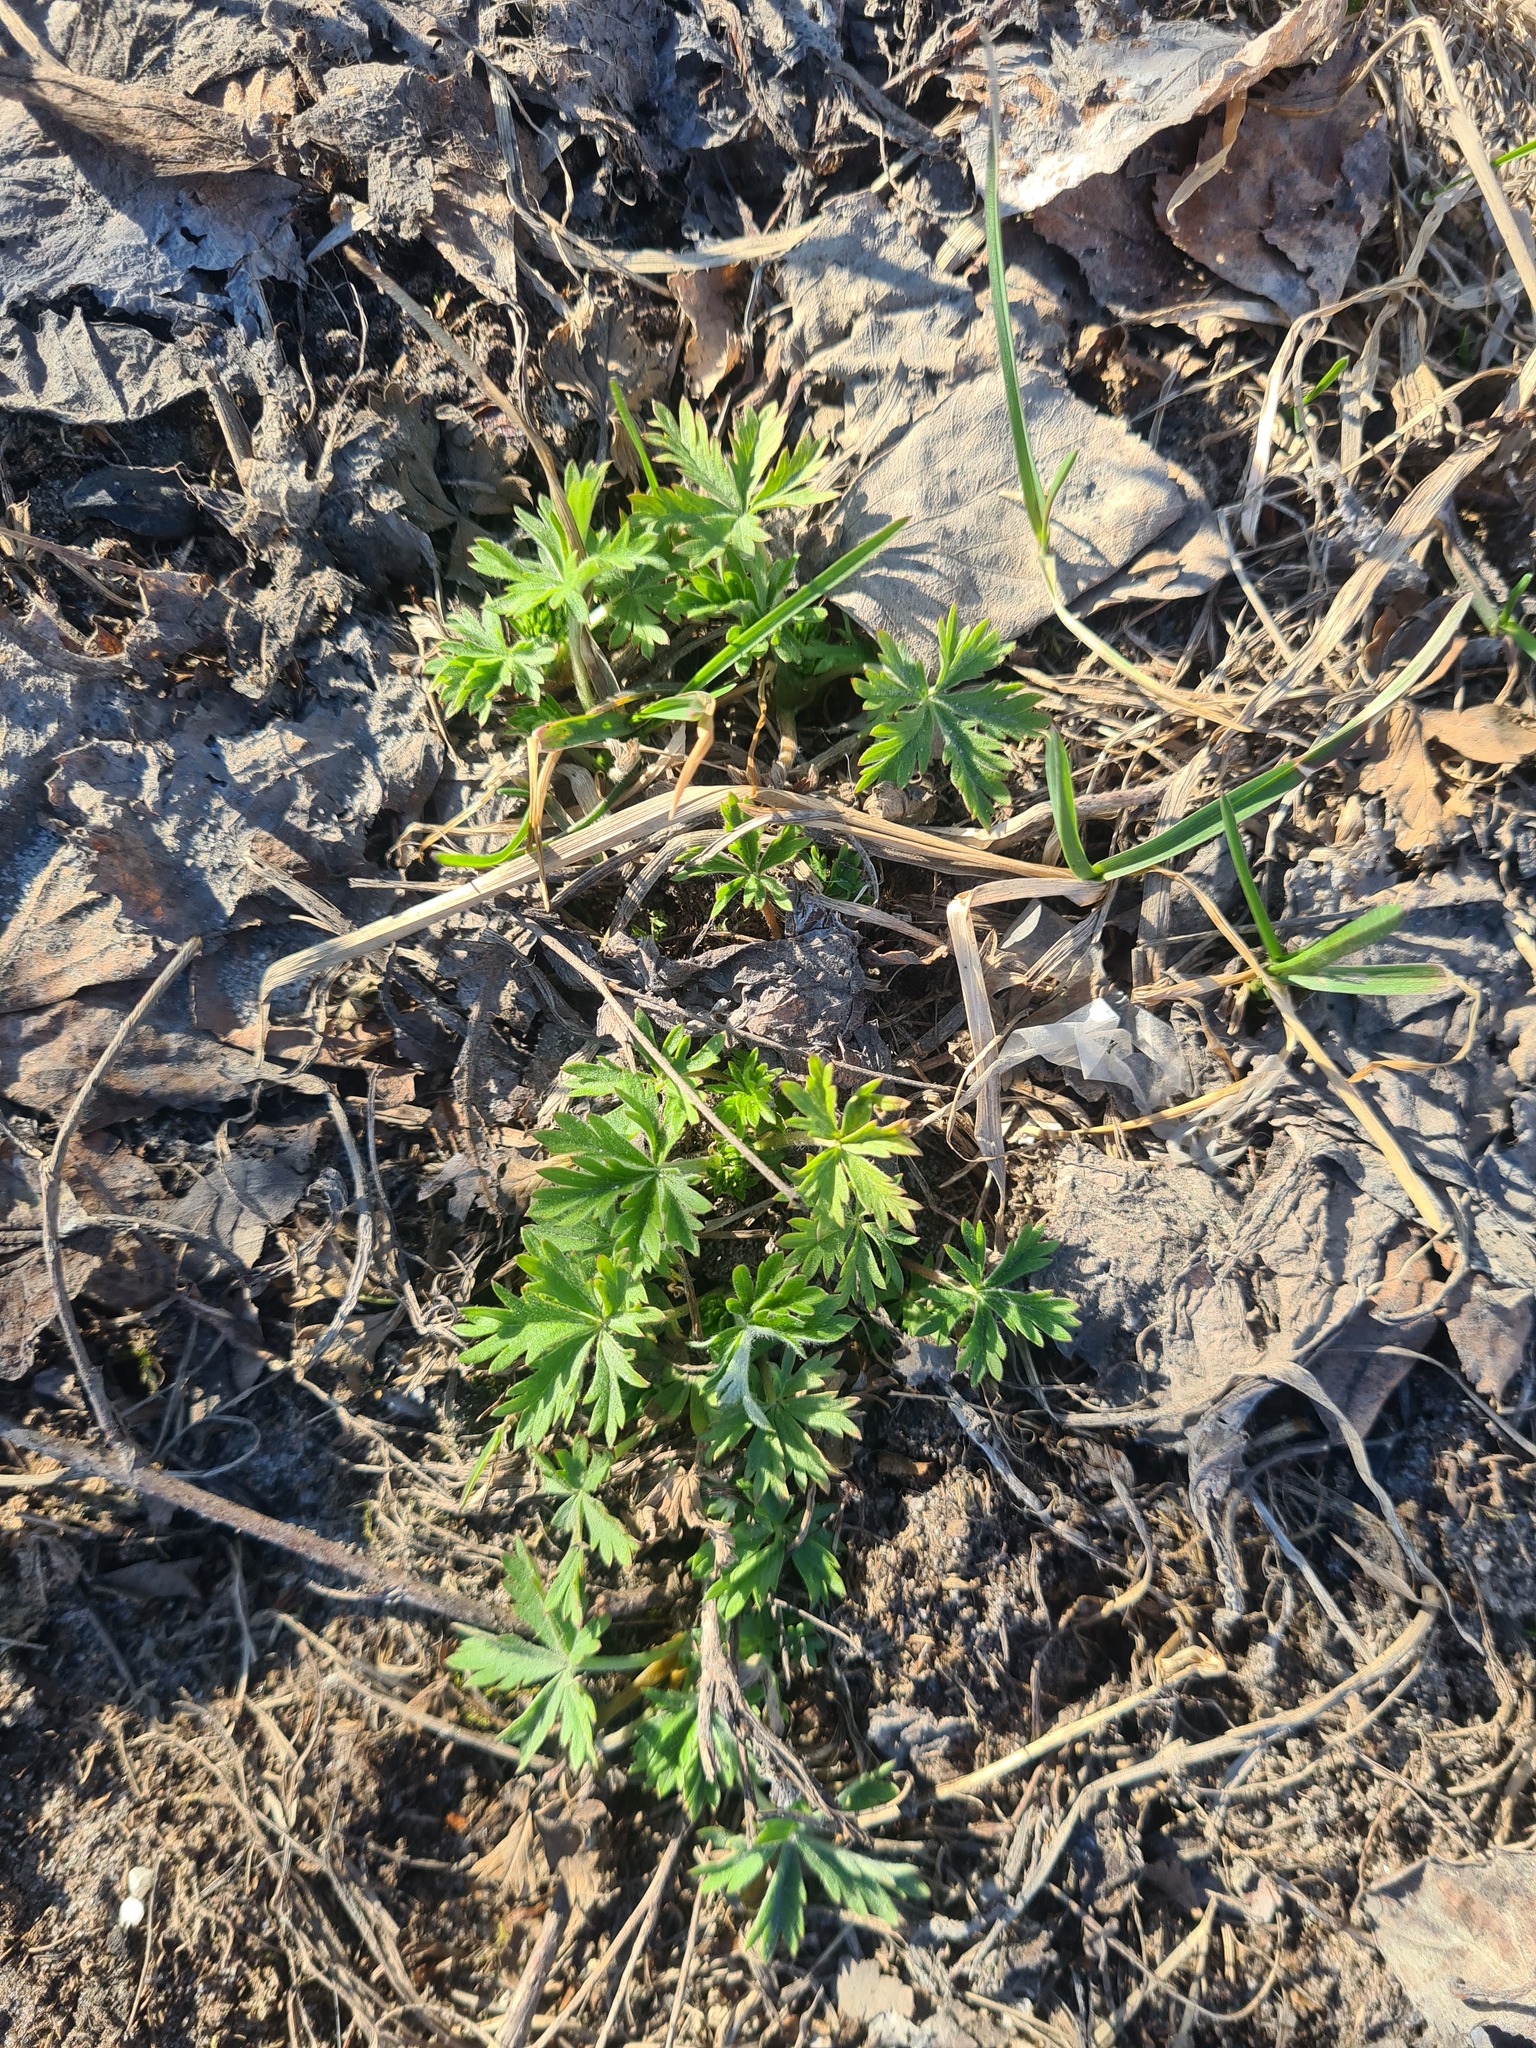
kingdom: Plantae
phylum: Tracheophyta
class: Magnoliopsida
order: Rosales
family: Rosaceae
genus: Potentilla
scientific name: Potentilla argentea
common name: Hoary cinquefoil
